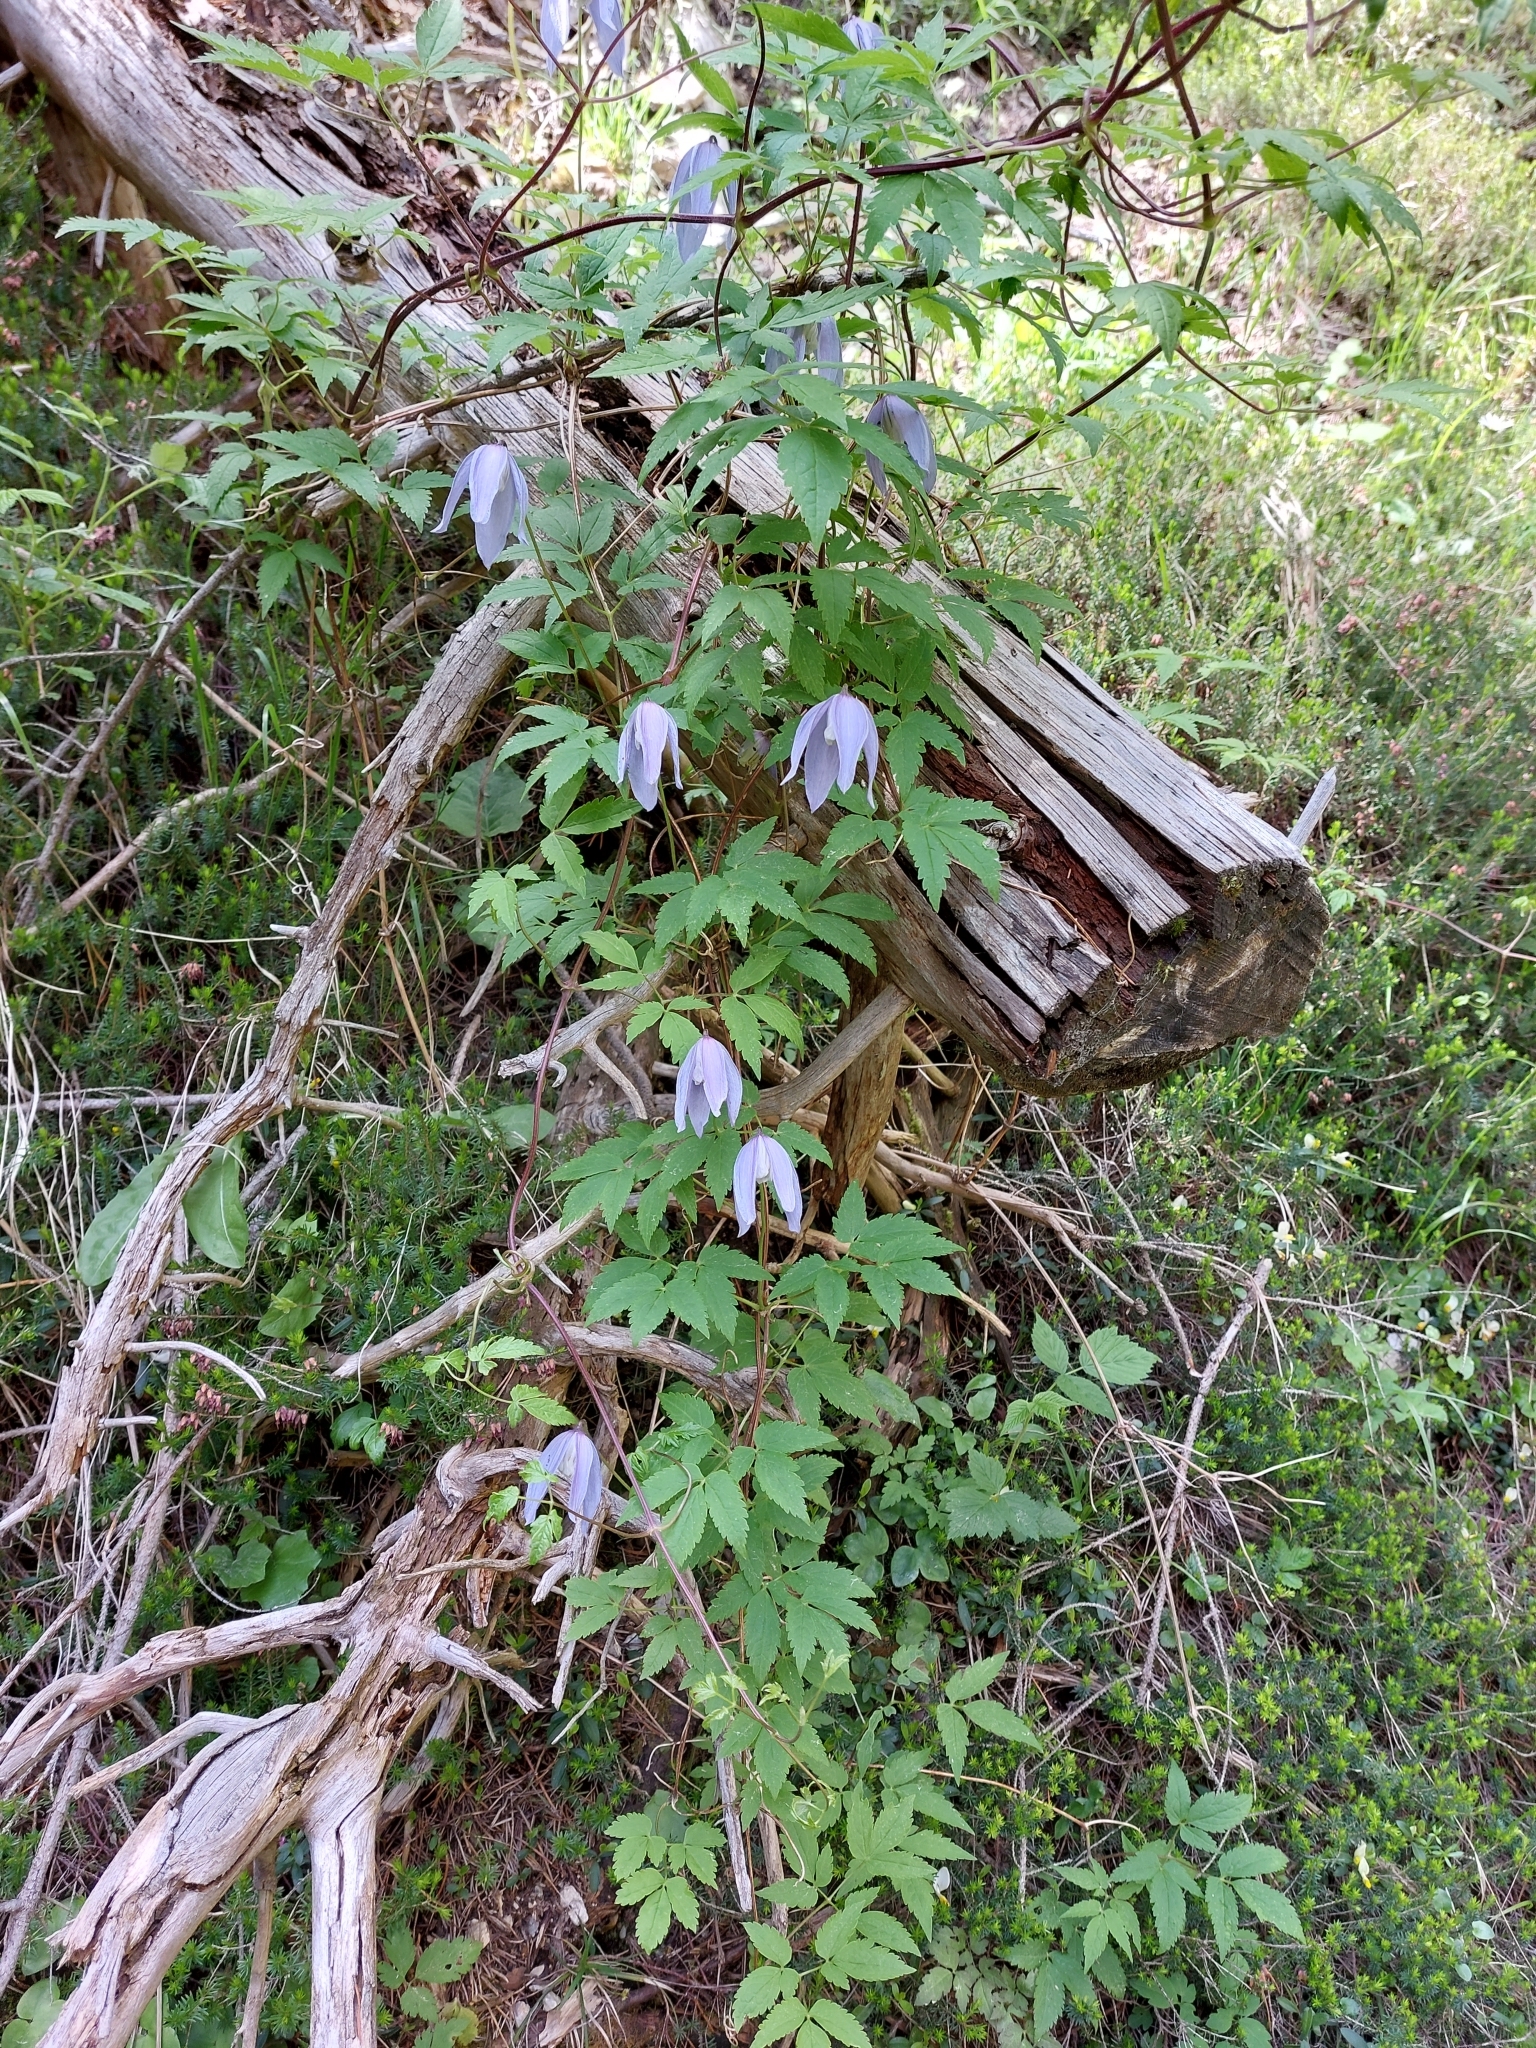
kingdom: Plantae
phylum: Tracheophyta
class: Magnoliopsida
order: Ranunculales
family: Ranunculaceae
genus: Clematis
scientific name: Clematis alpina
